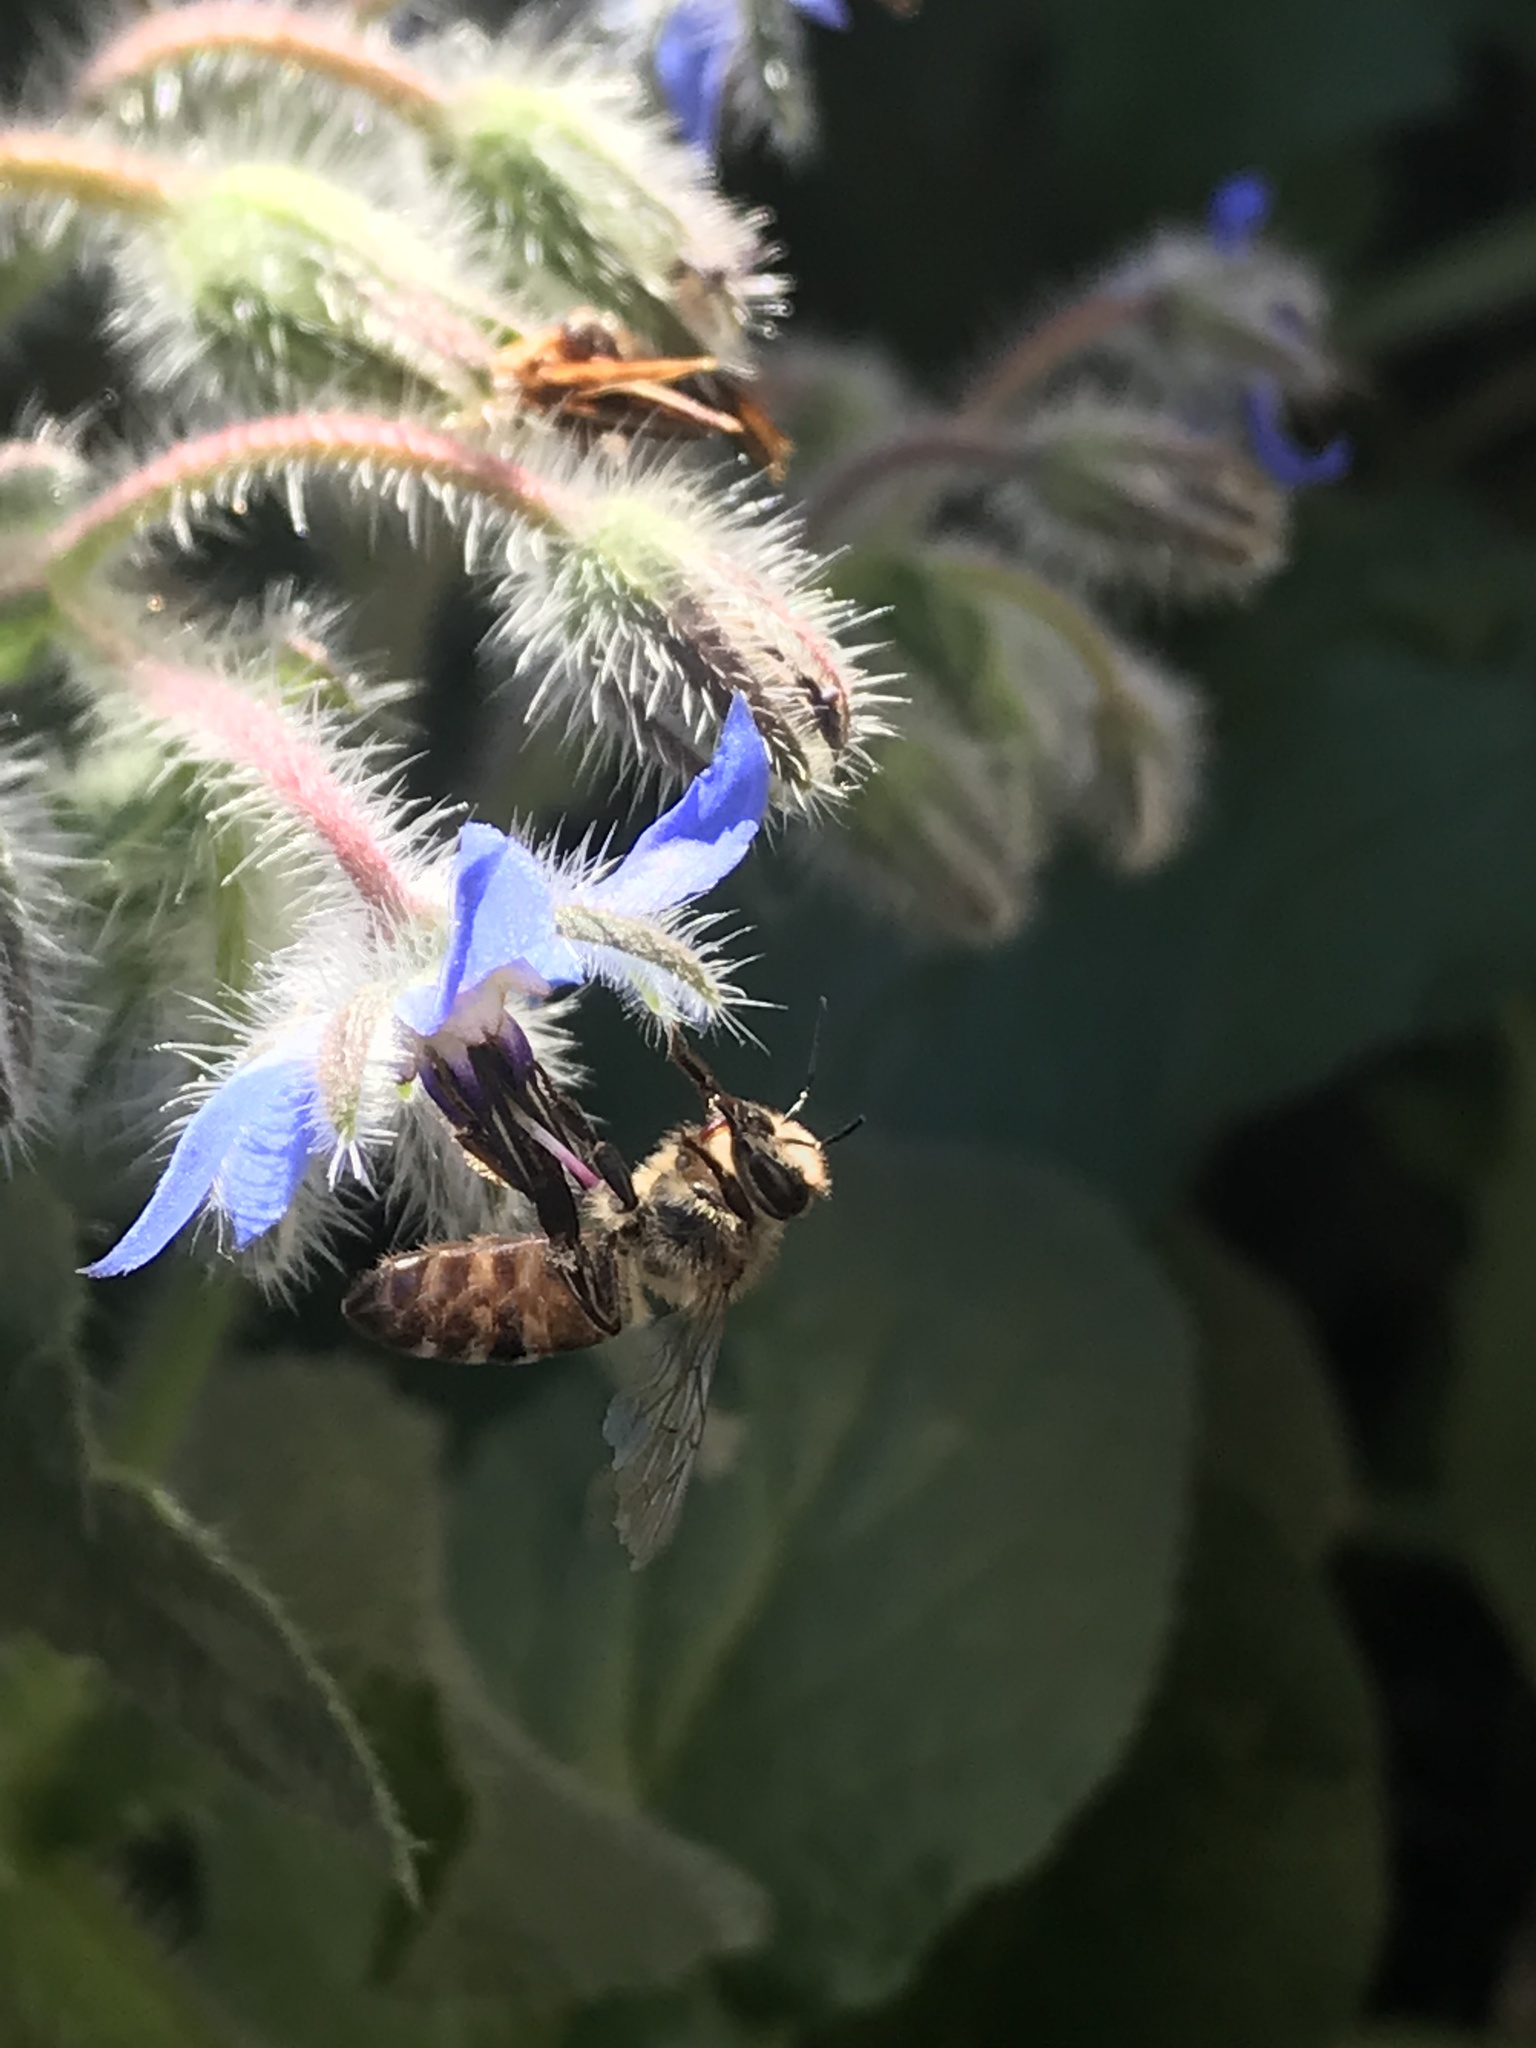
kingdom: Animalia
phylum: Arthropoda
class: Insecta
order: Hymenoptera
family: Apidae
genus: Apis
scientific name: Apis mellifera
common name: Honey bee
